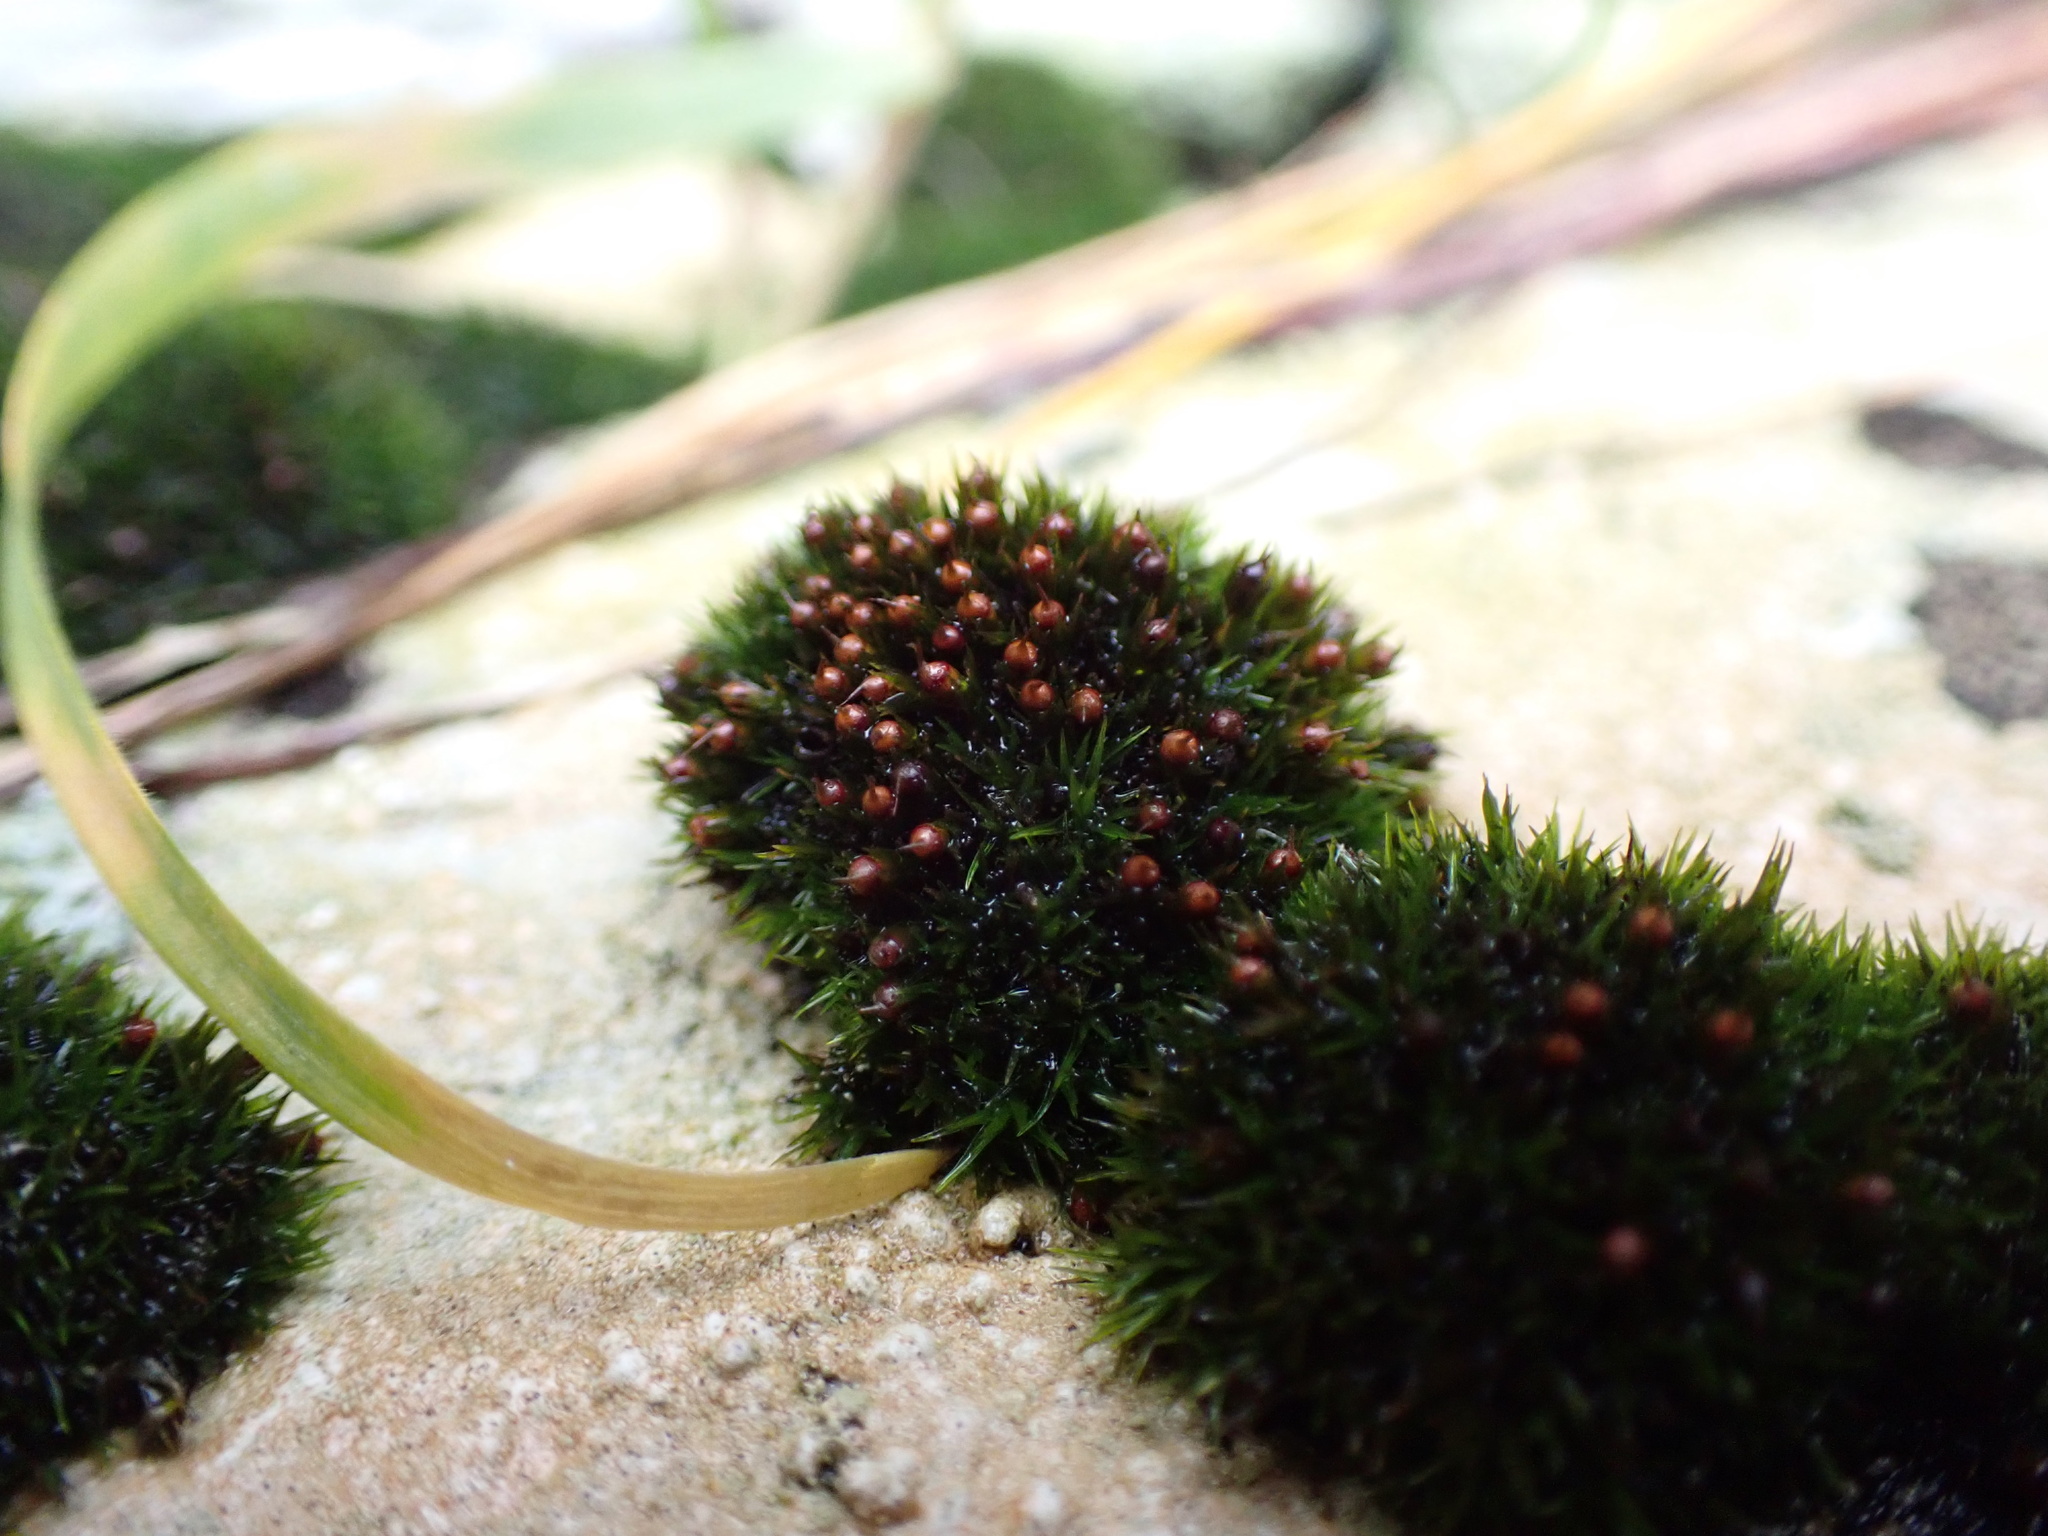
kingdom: Plantae
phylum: Bryophyta
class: Bryopsida
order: Grimmiales
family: Grimmiaceae
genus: Schistidium
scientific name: Schistidium maritimum
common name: Seaside bloom moss
